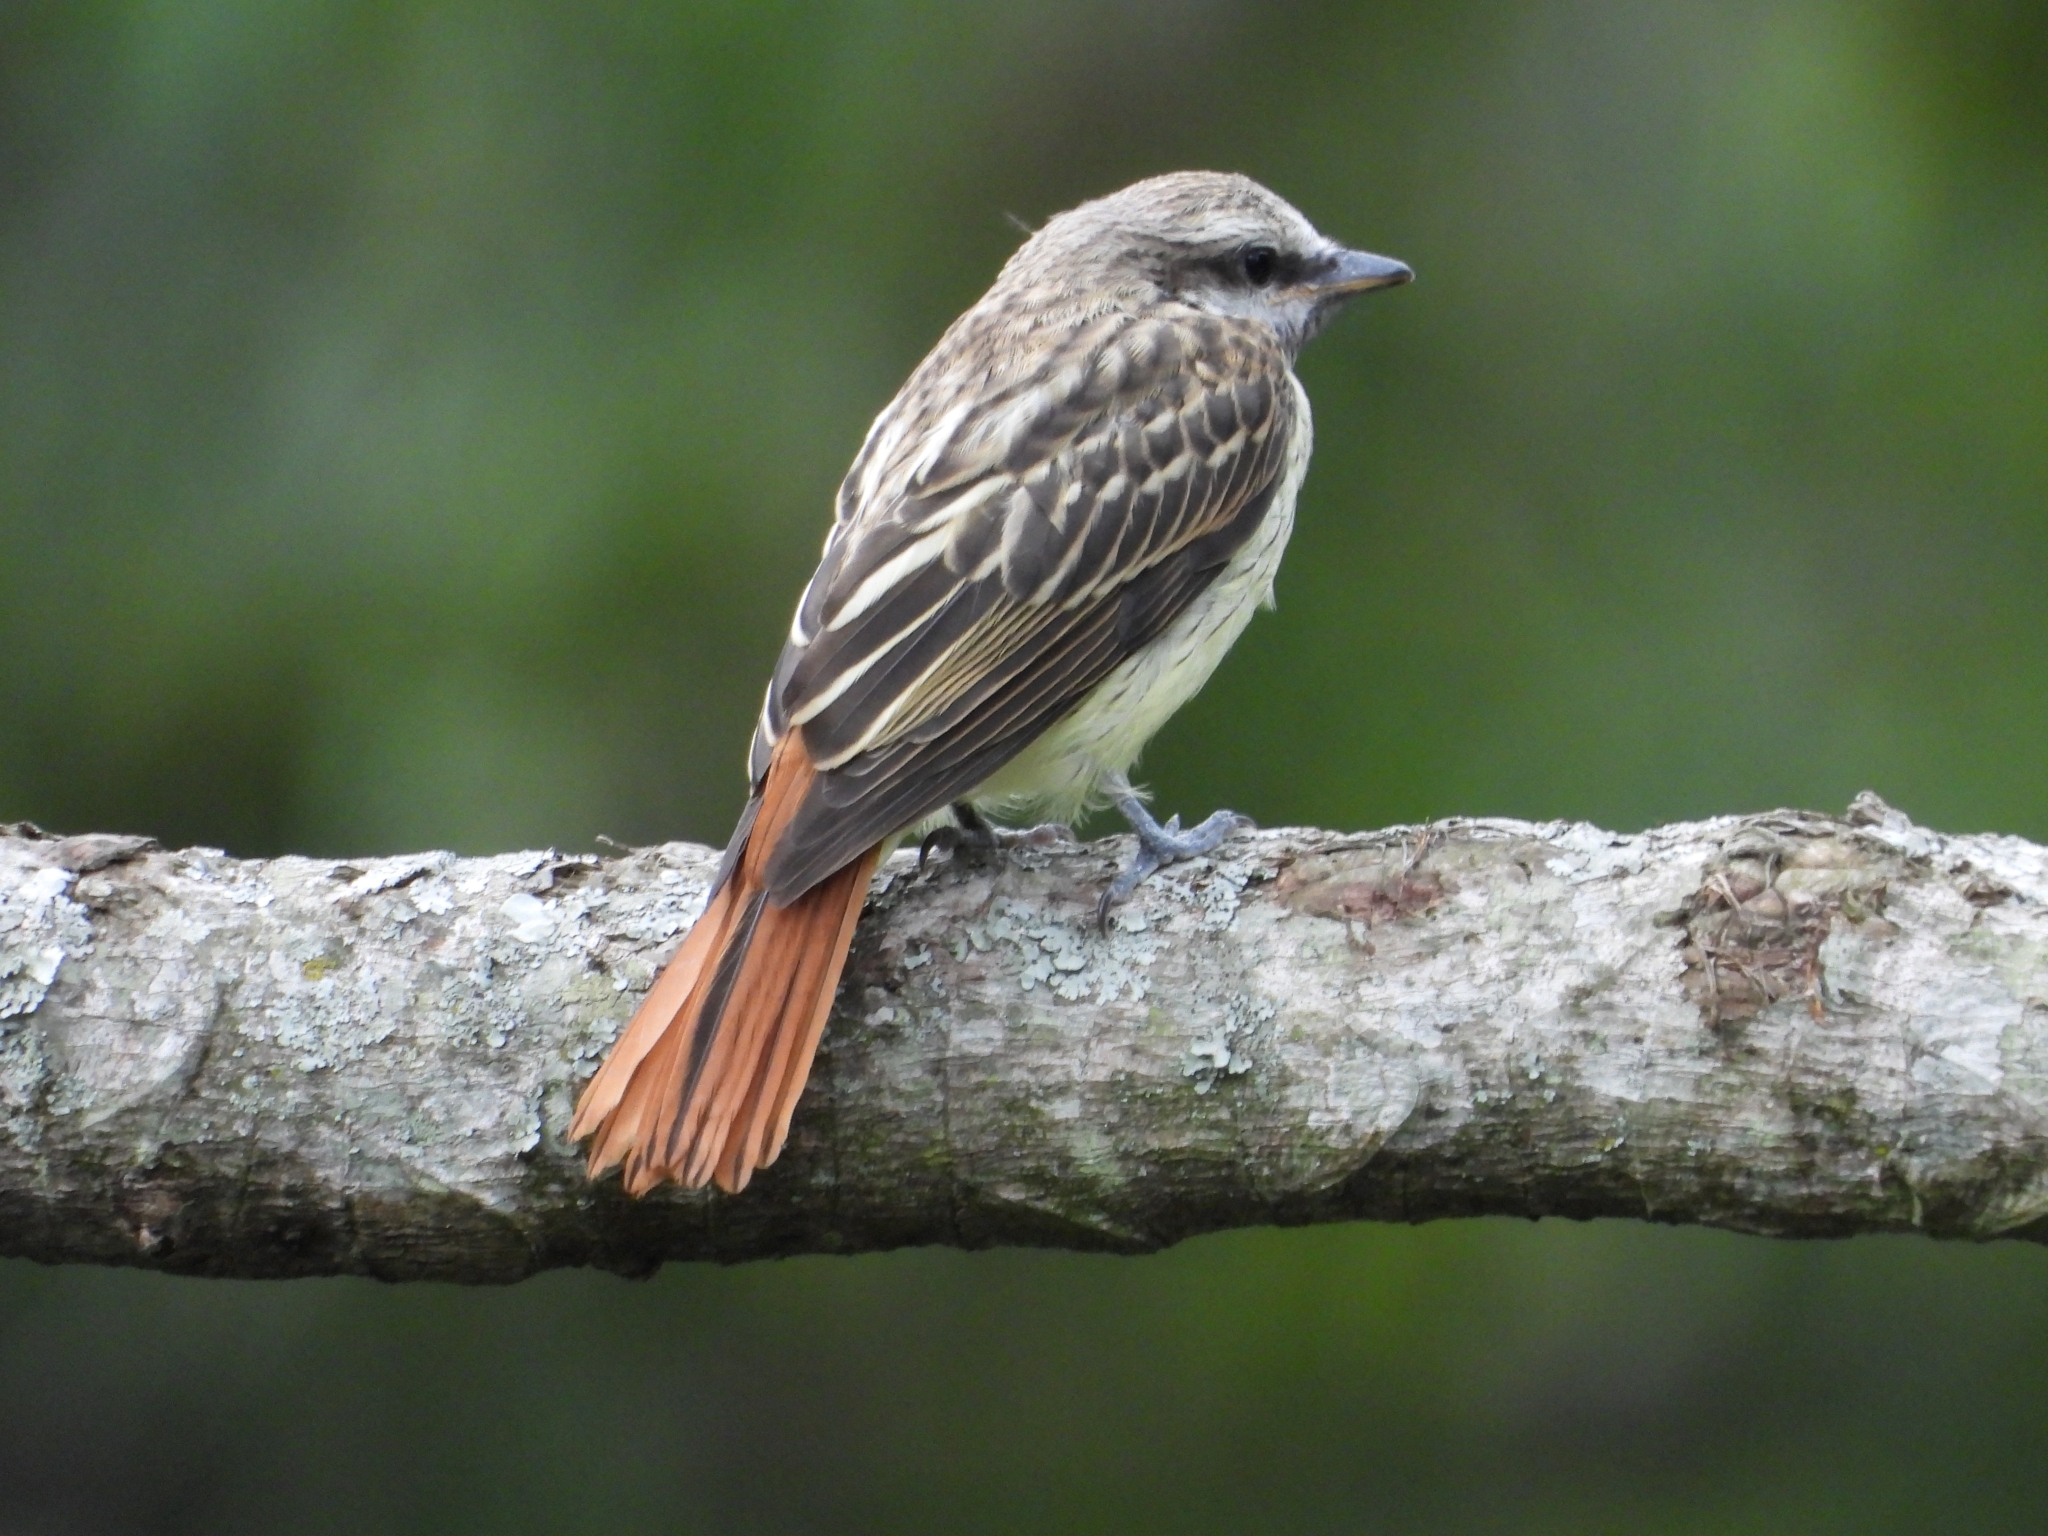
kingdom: Animalia
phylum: Chordata
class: Aves
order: Passeriformes
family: Tyrannidae
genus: Myiodynastes
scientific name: Myiodynastes luteiventris
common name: Sulphur-bellied flycatcher
